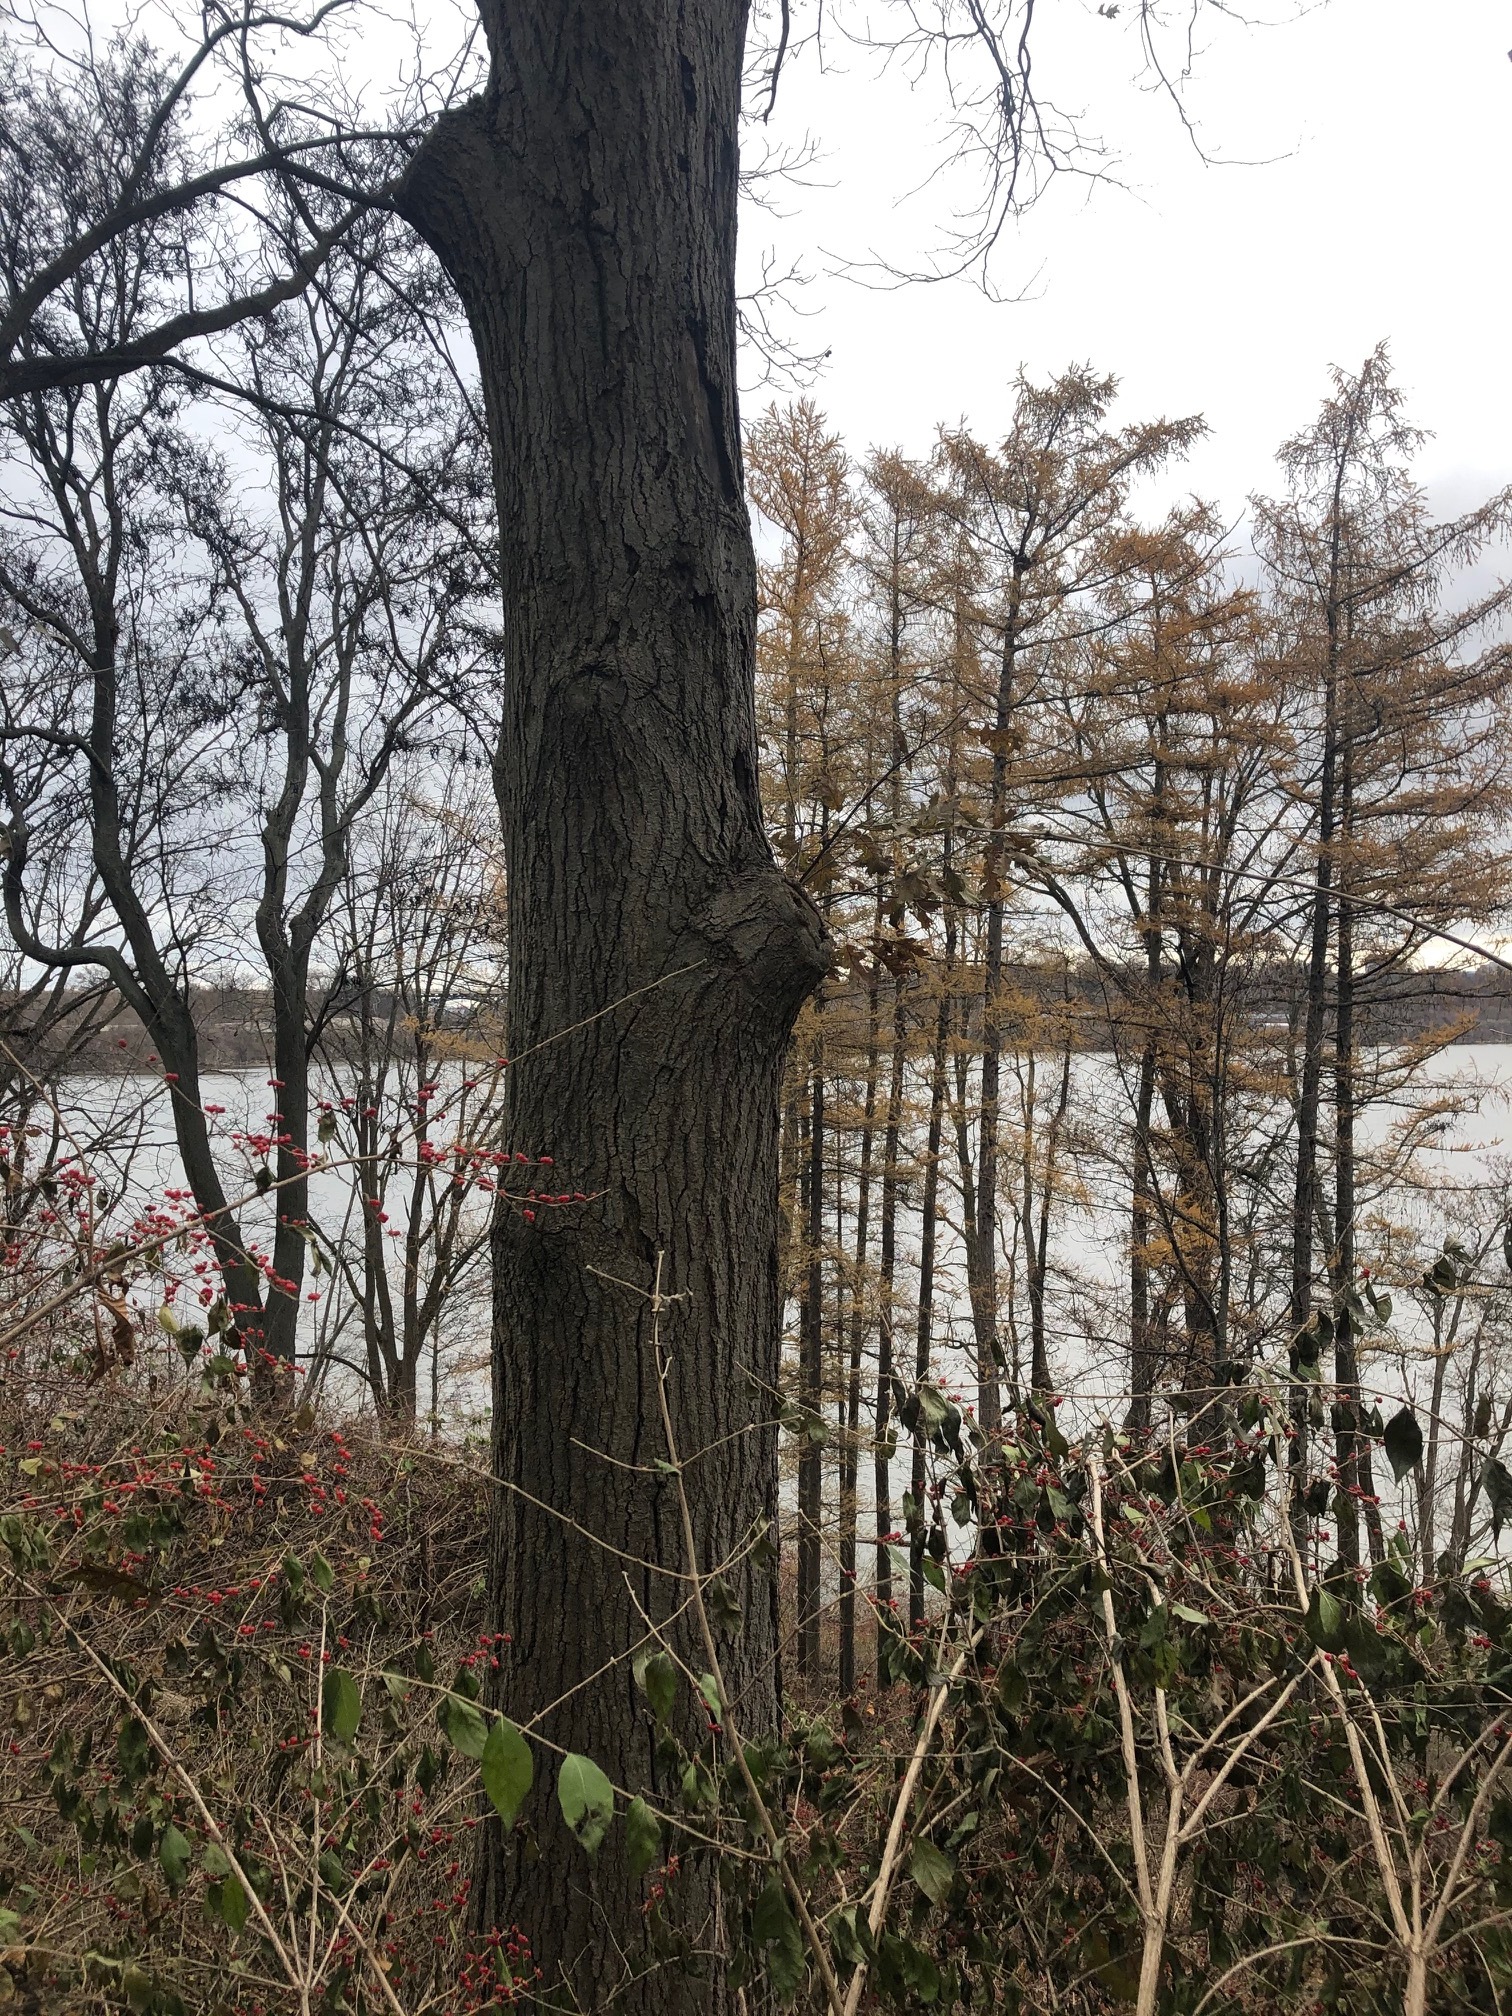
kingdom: Plantae
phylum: Tracheophyta
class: Magnoliopsida
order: Fagales
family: Fagaceae
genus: Quercus
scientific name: Quercus velutina
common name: Black oak
